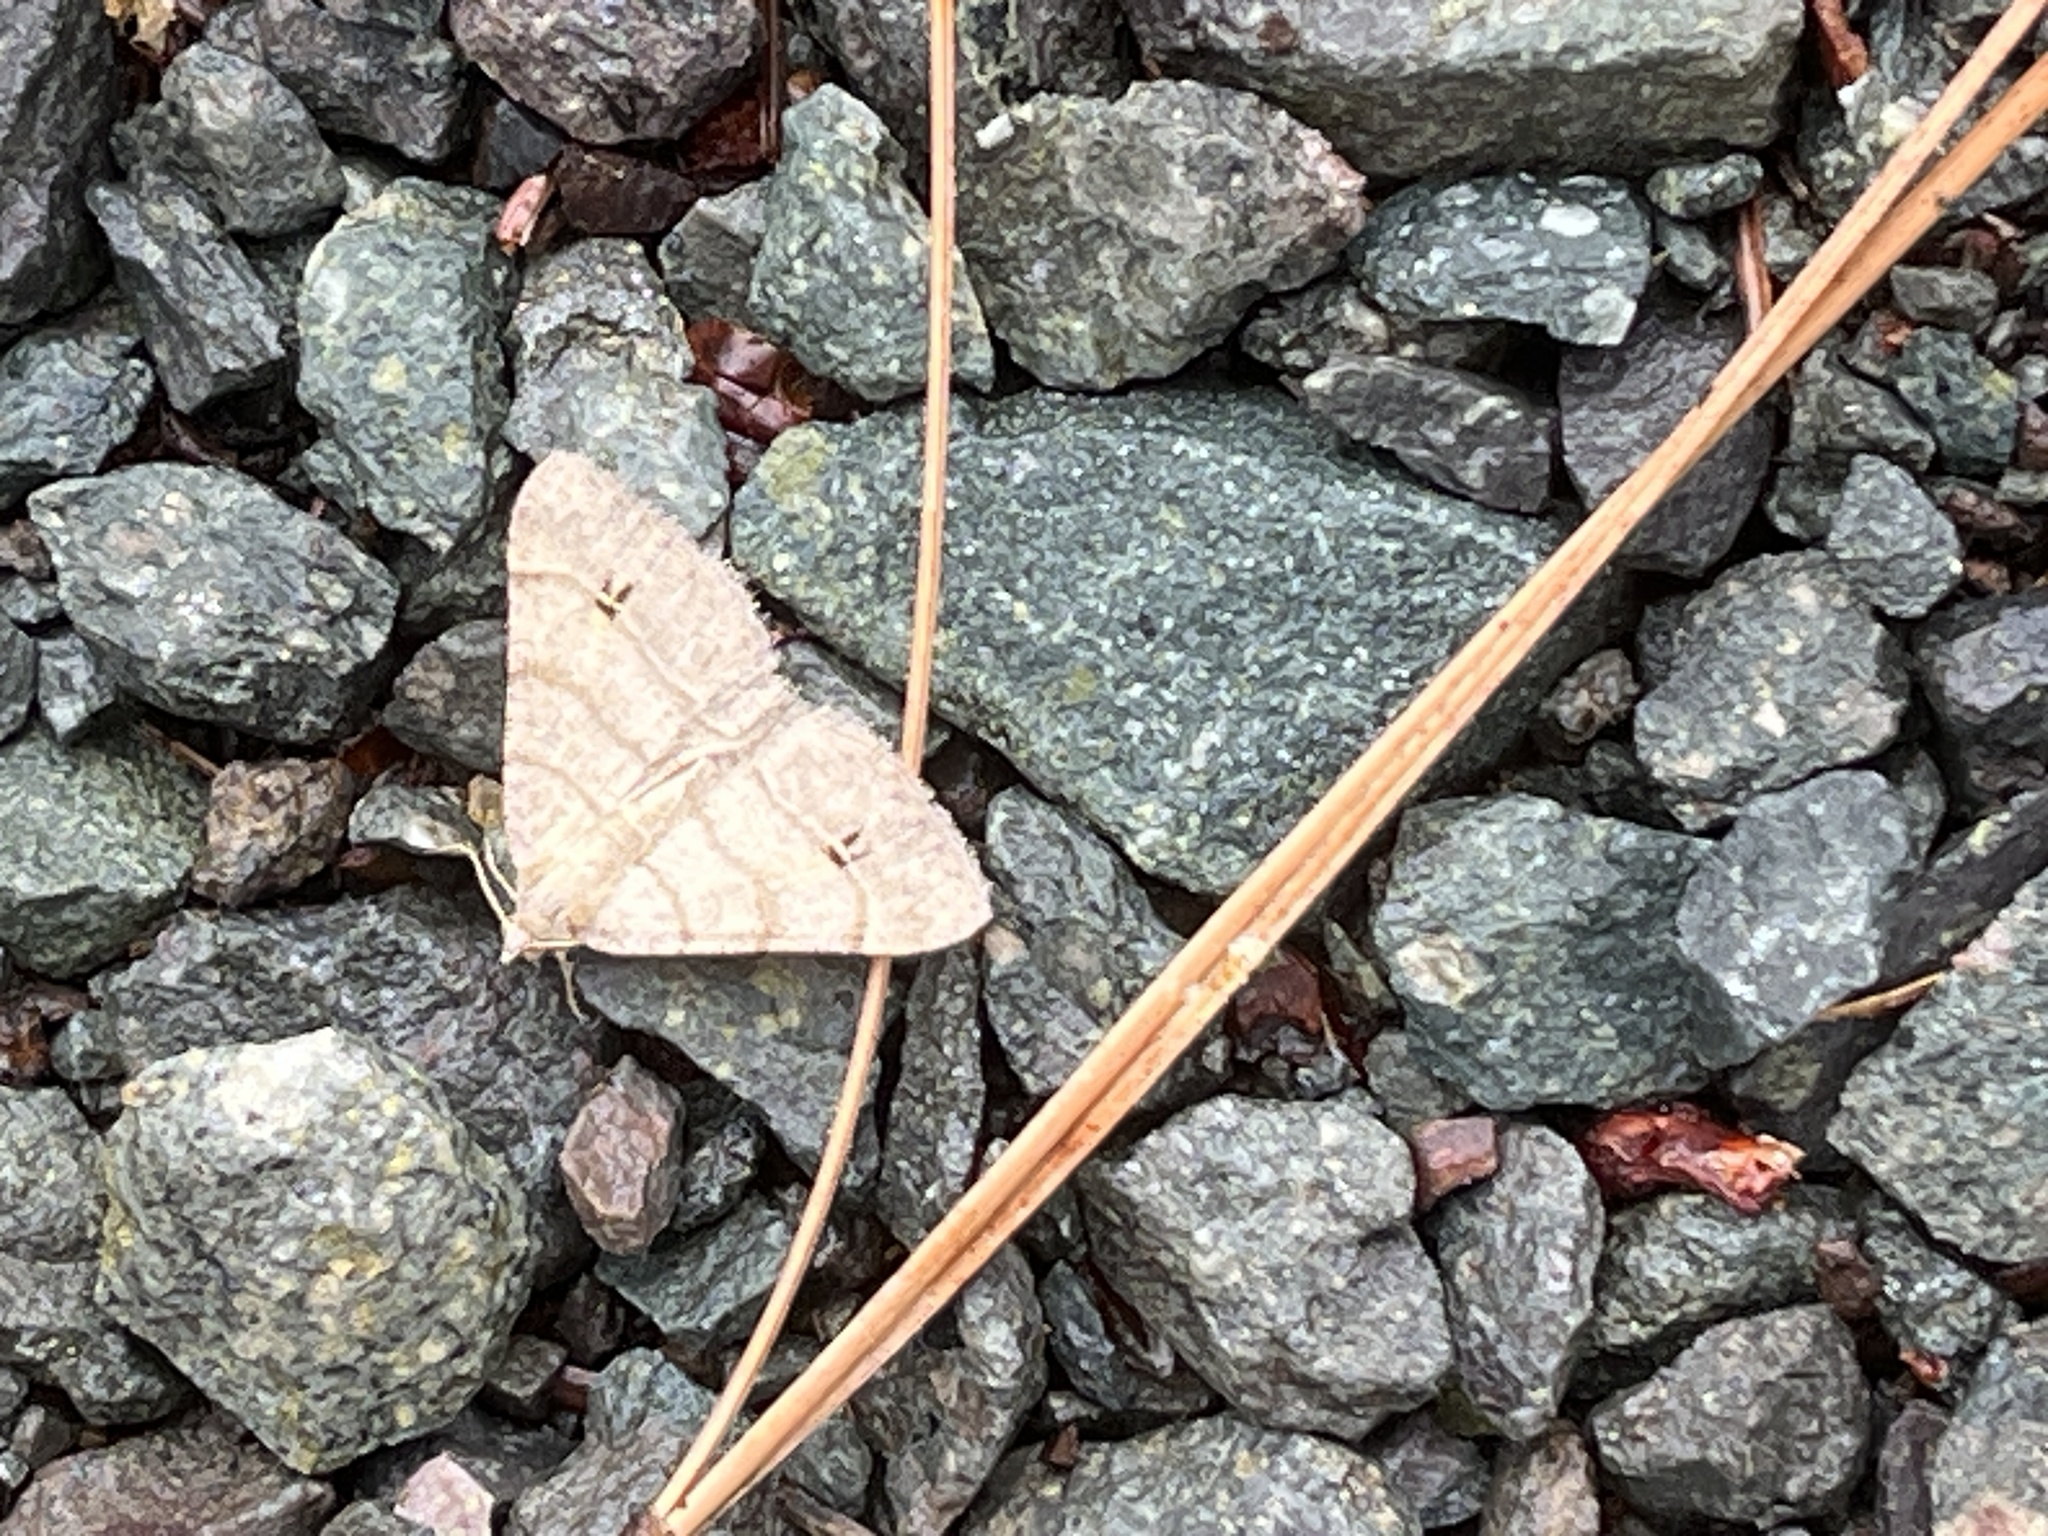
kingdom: Animalia
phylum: Arthropoda
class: Insecta
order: Lepidoptera
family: Geometridae
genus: Digrammia
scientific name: Digrammia muscariata
